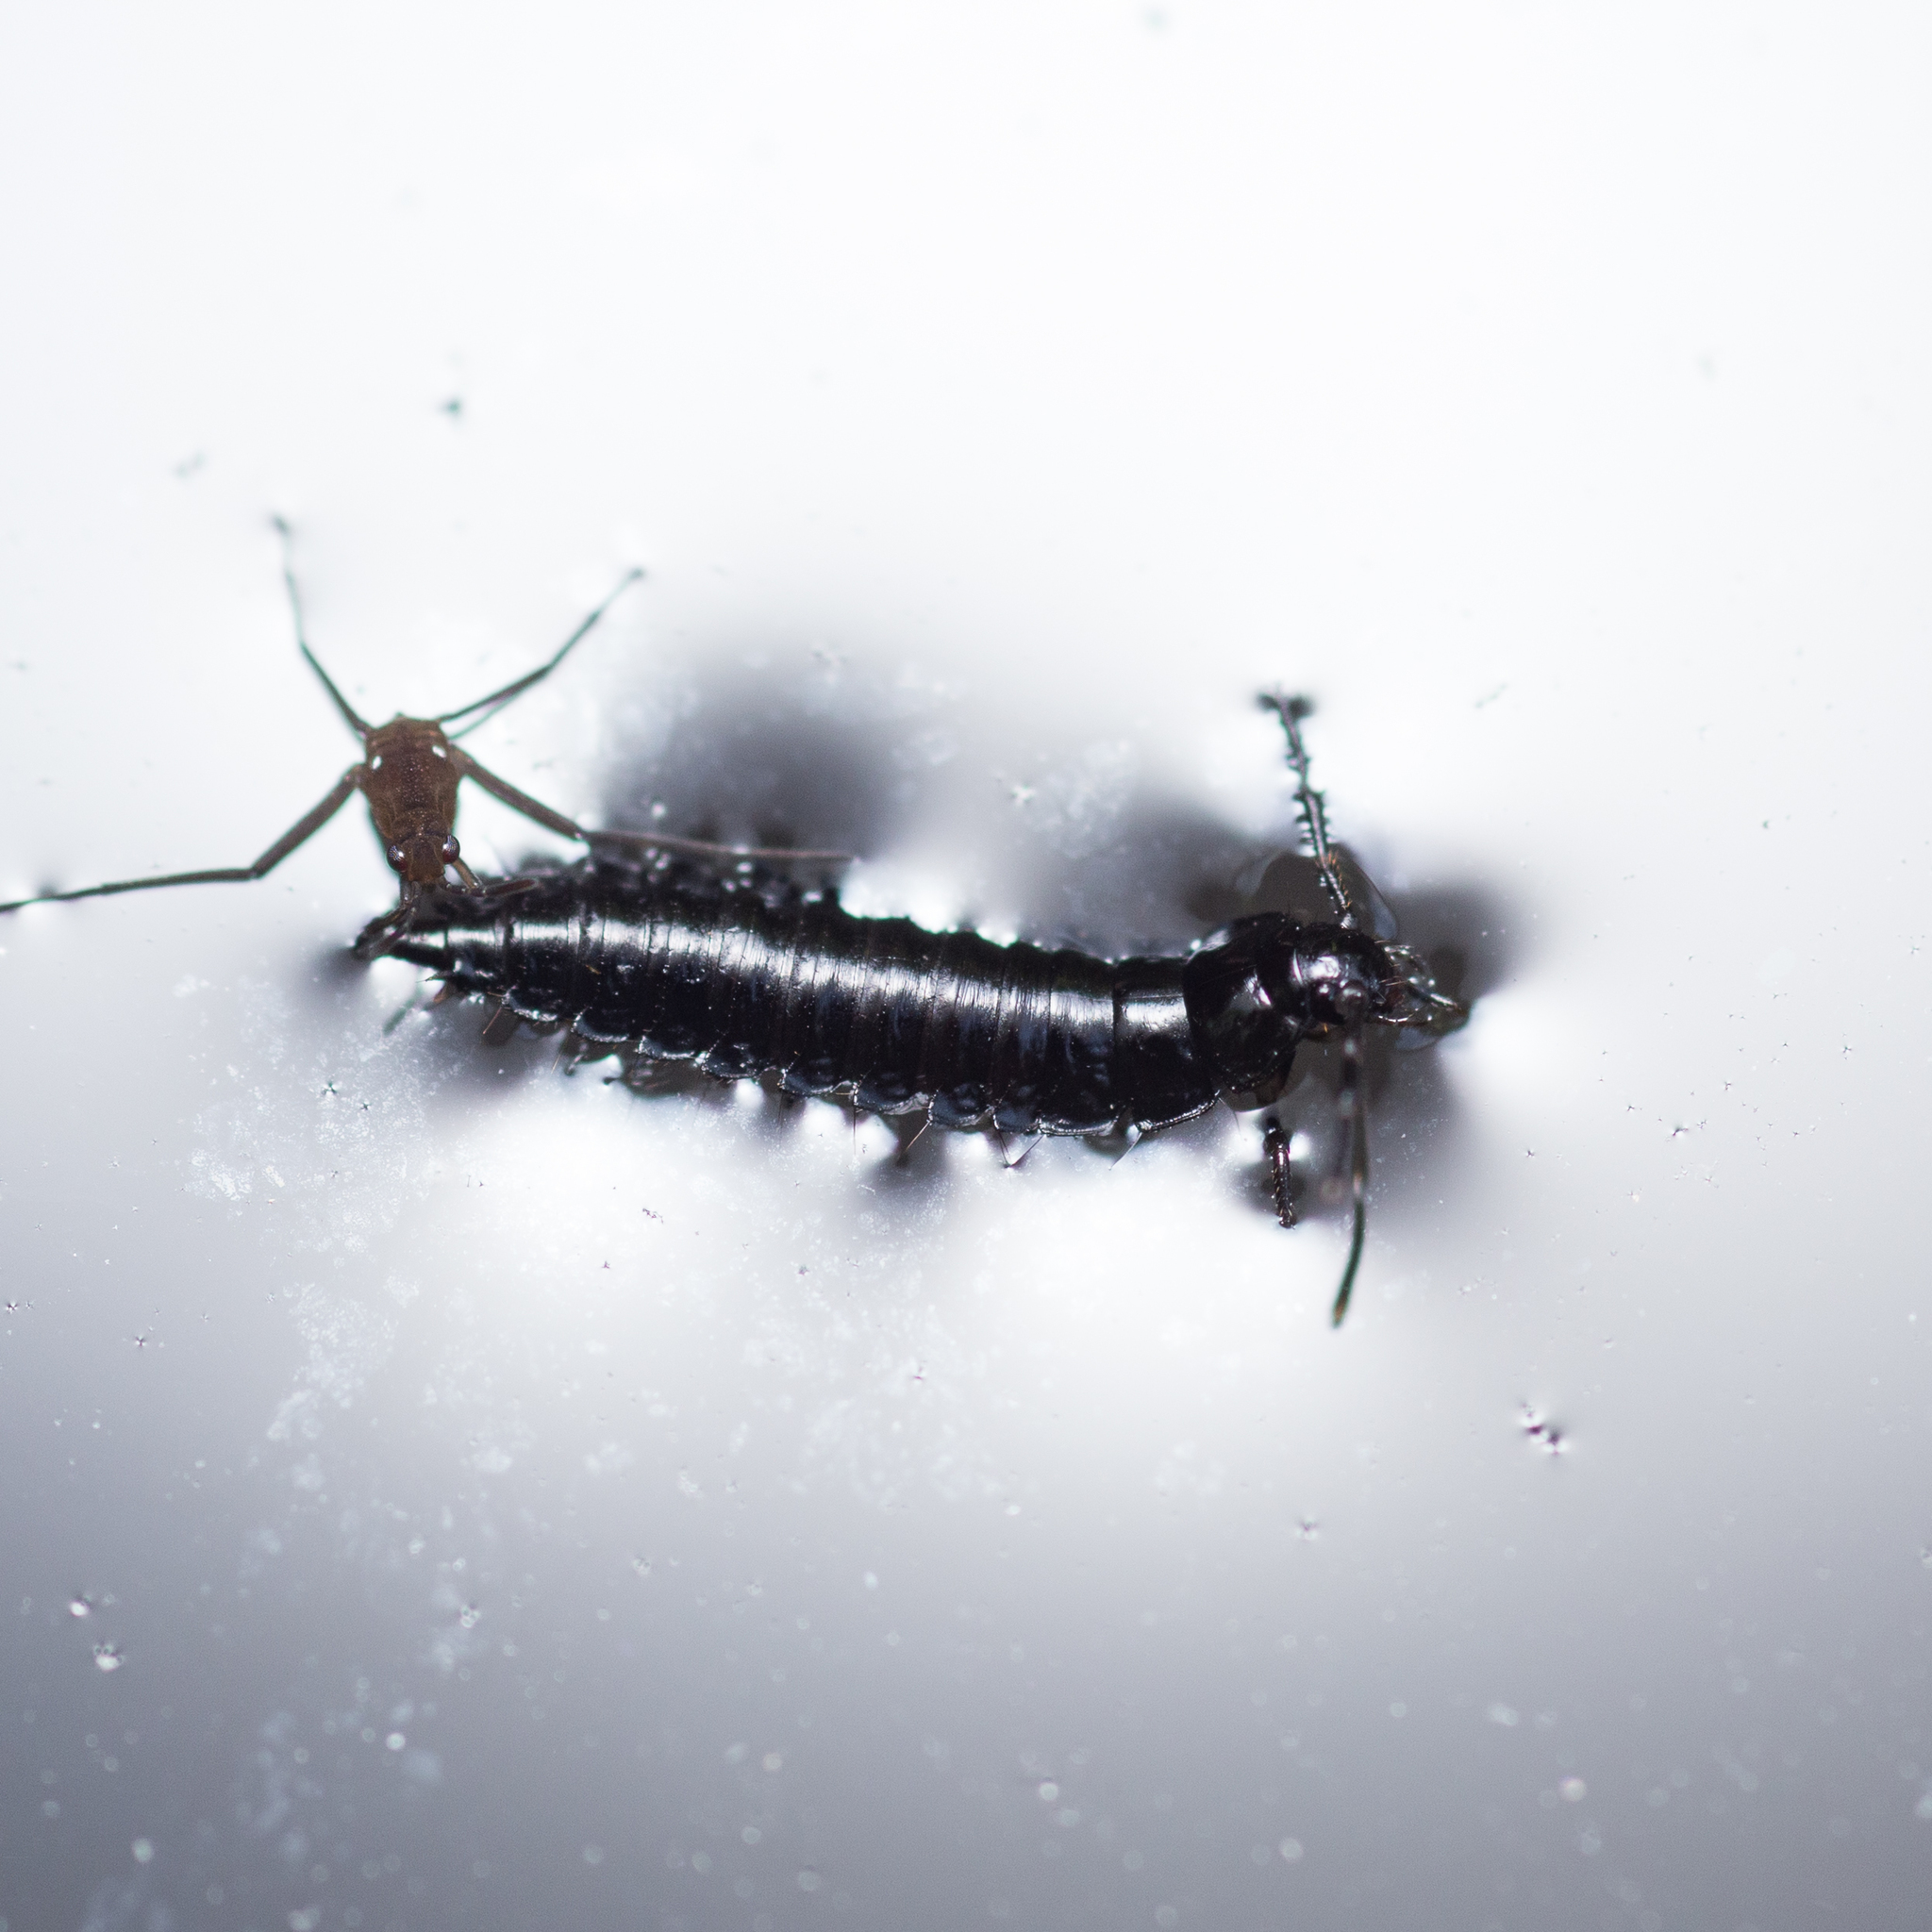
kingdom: Animalia
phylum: Arthropoda
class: Insecta
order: Coleoptera
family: Staphylinidae
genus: Silpha
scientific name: Silpha atrata
